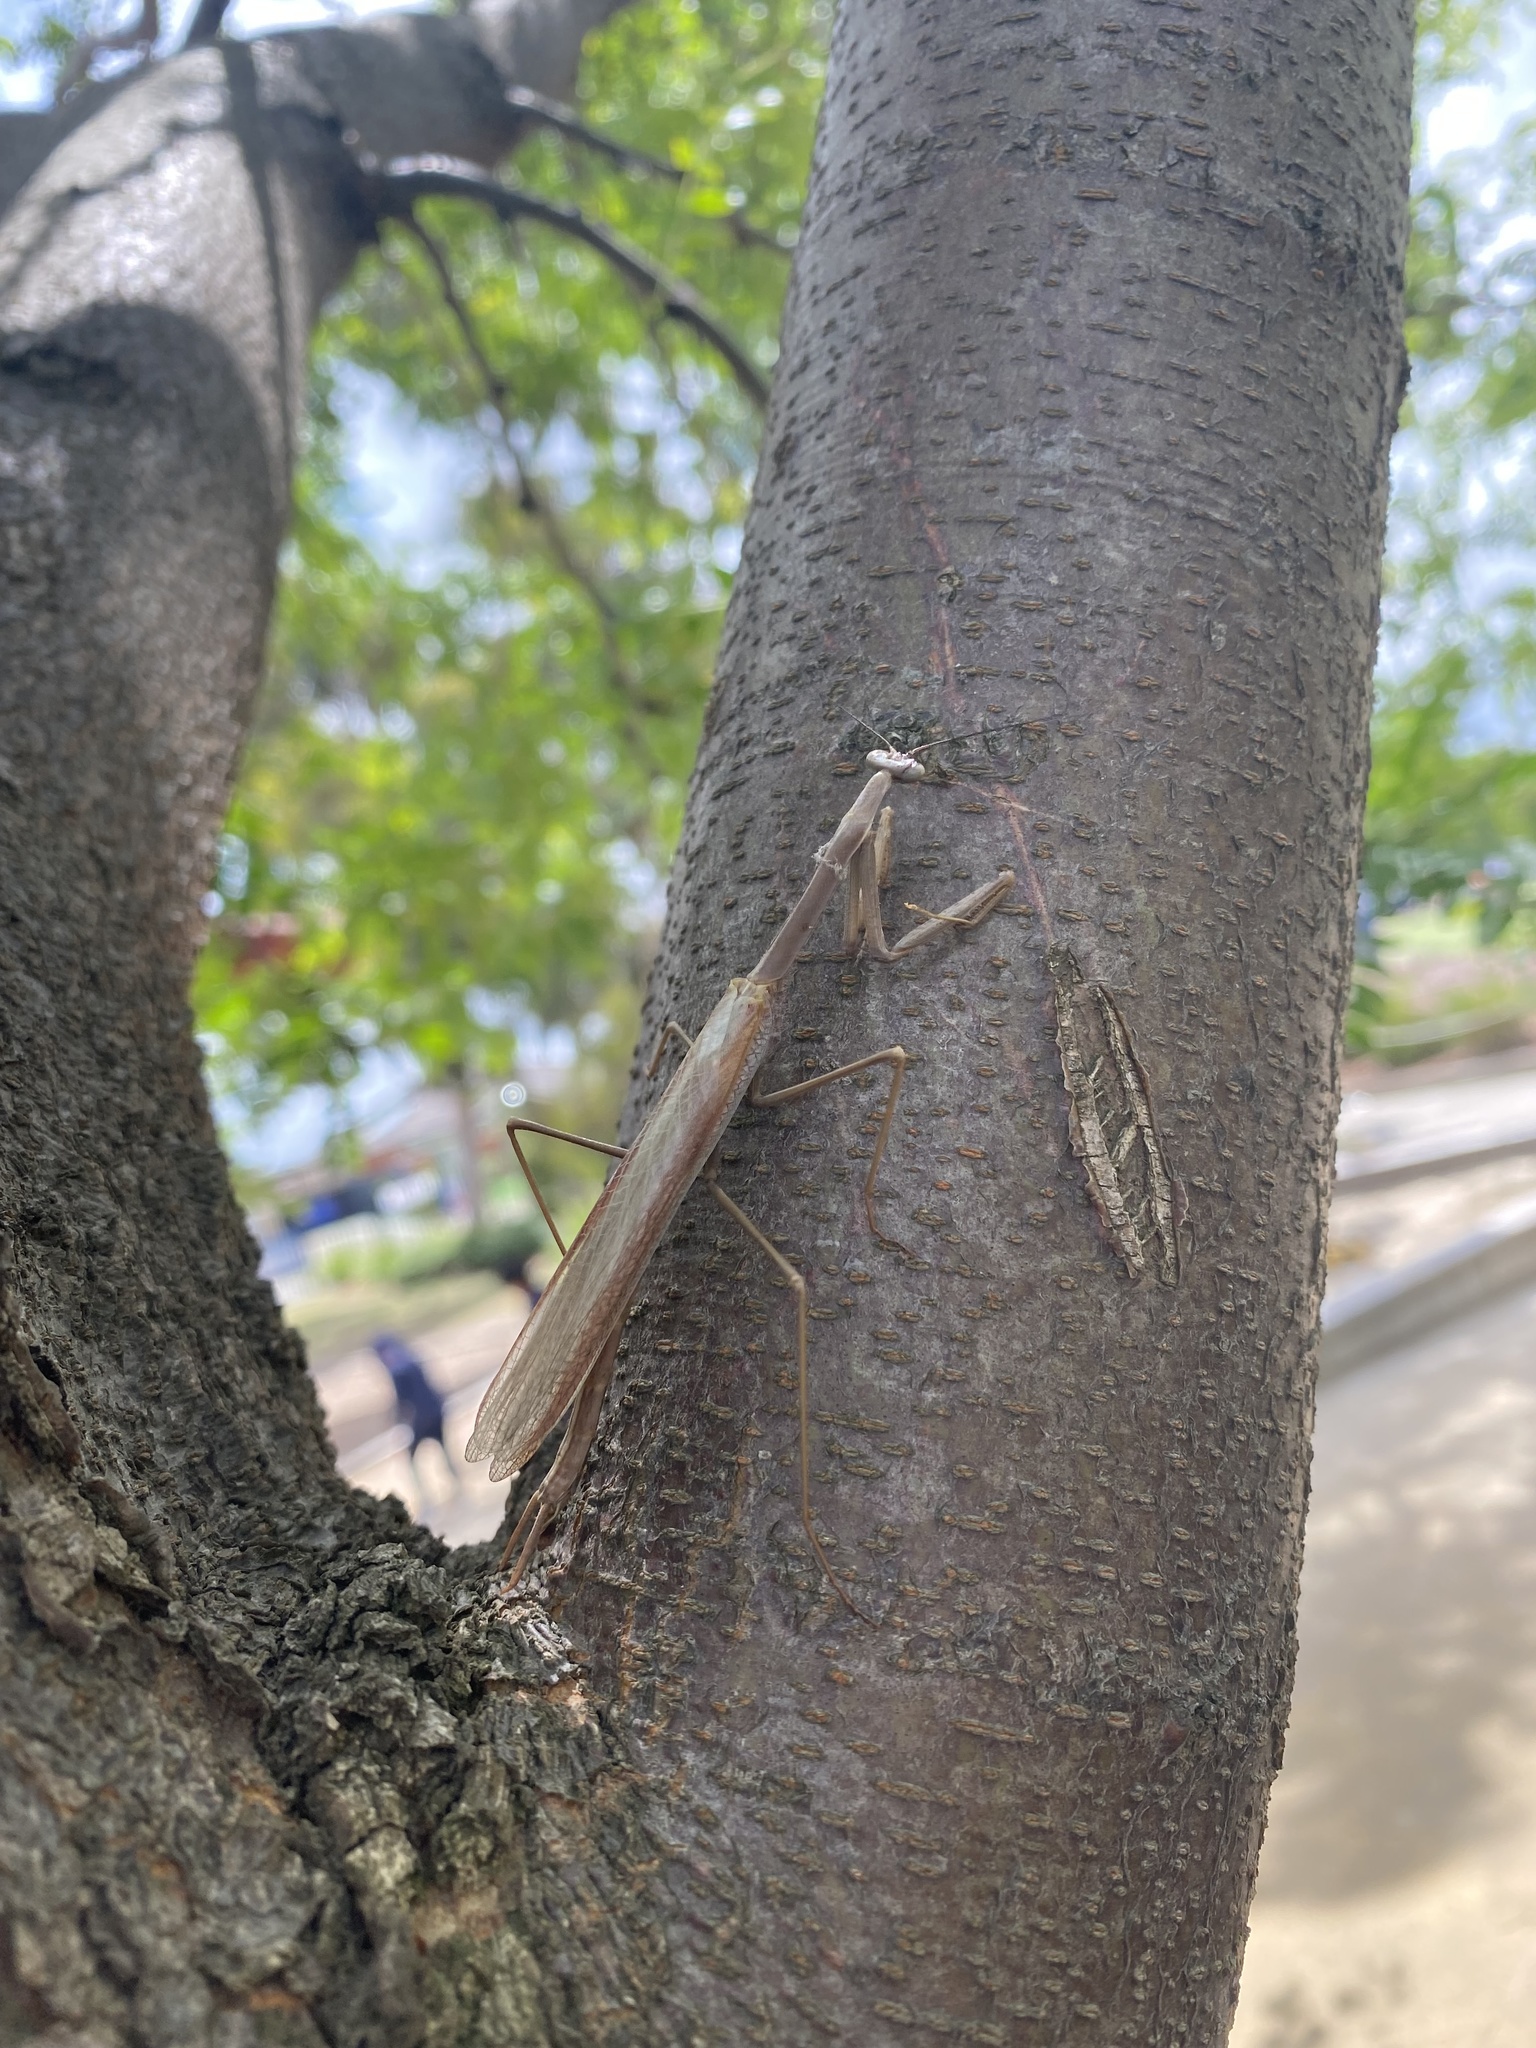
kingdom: Animalia
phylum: Arthropoda
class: Insecta
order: Mantodea
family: Mantidae
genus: Archimantis
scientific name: Archimantis sobrina
